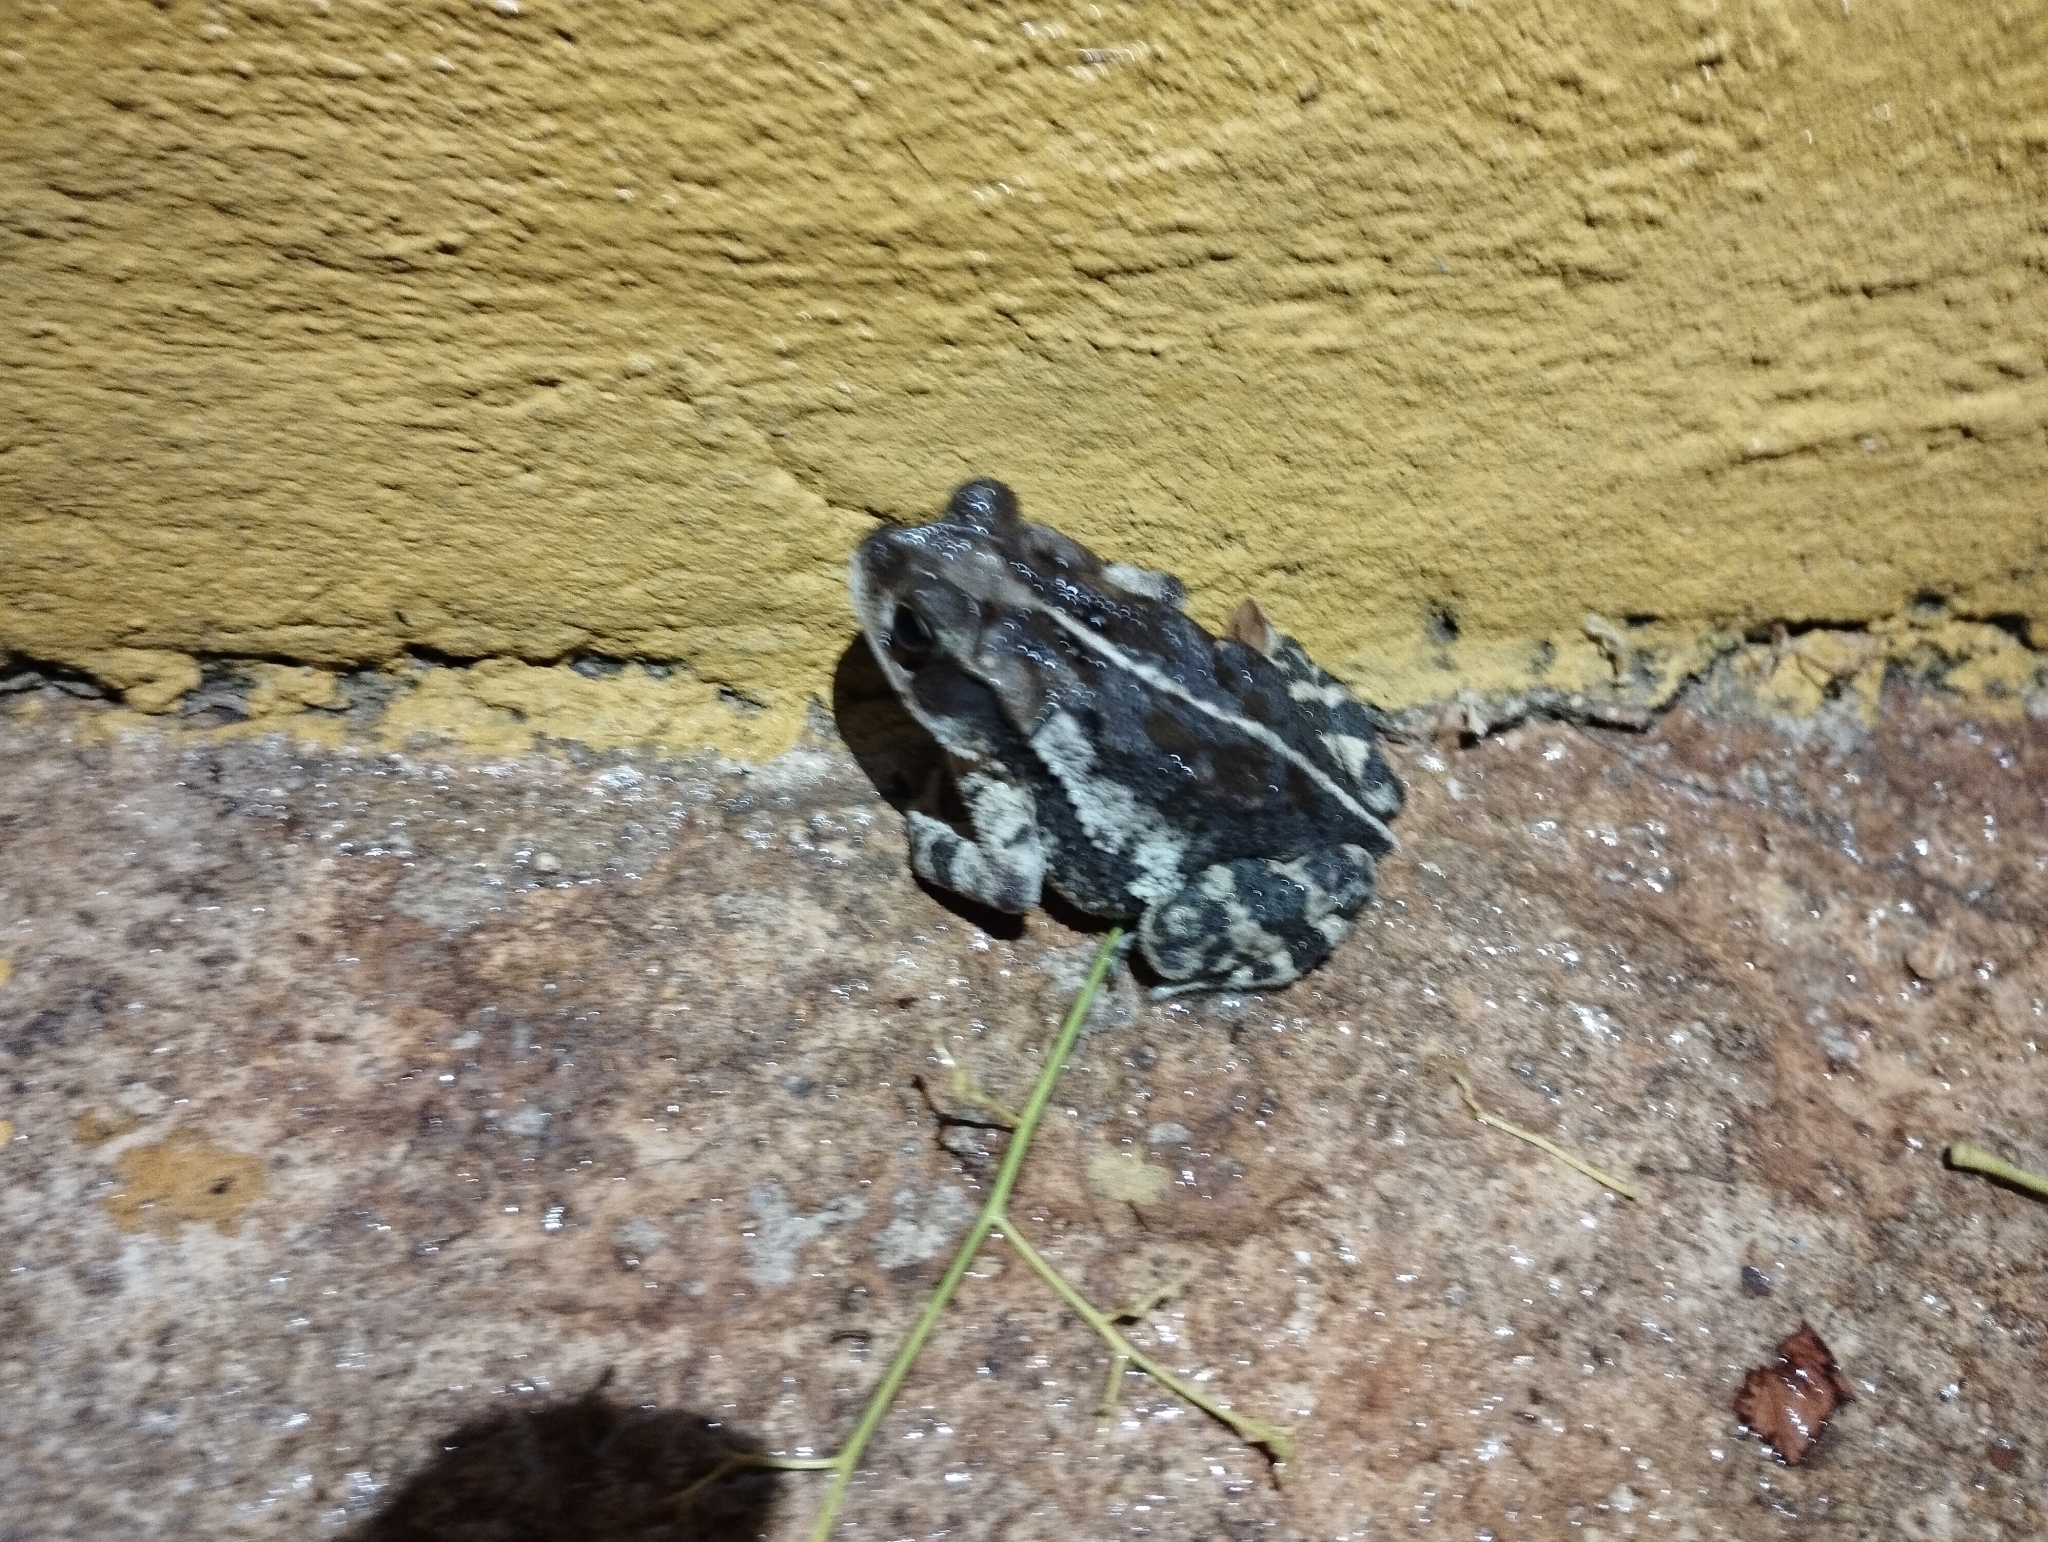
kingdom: Animalia
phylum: Chordata
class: Amphibia
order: Anura
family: Bufonidae
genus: Incilius
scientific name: Incilius valliceps
